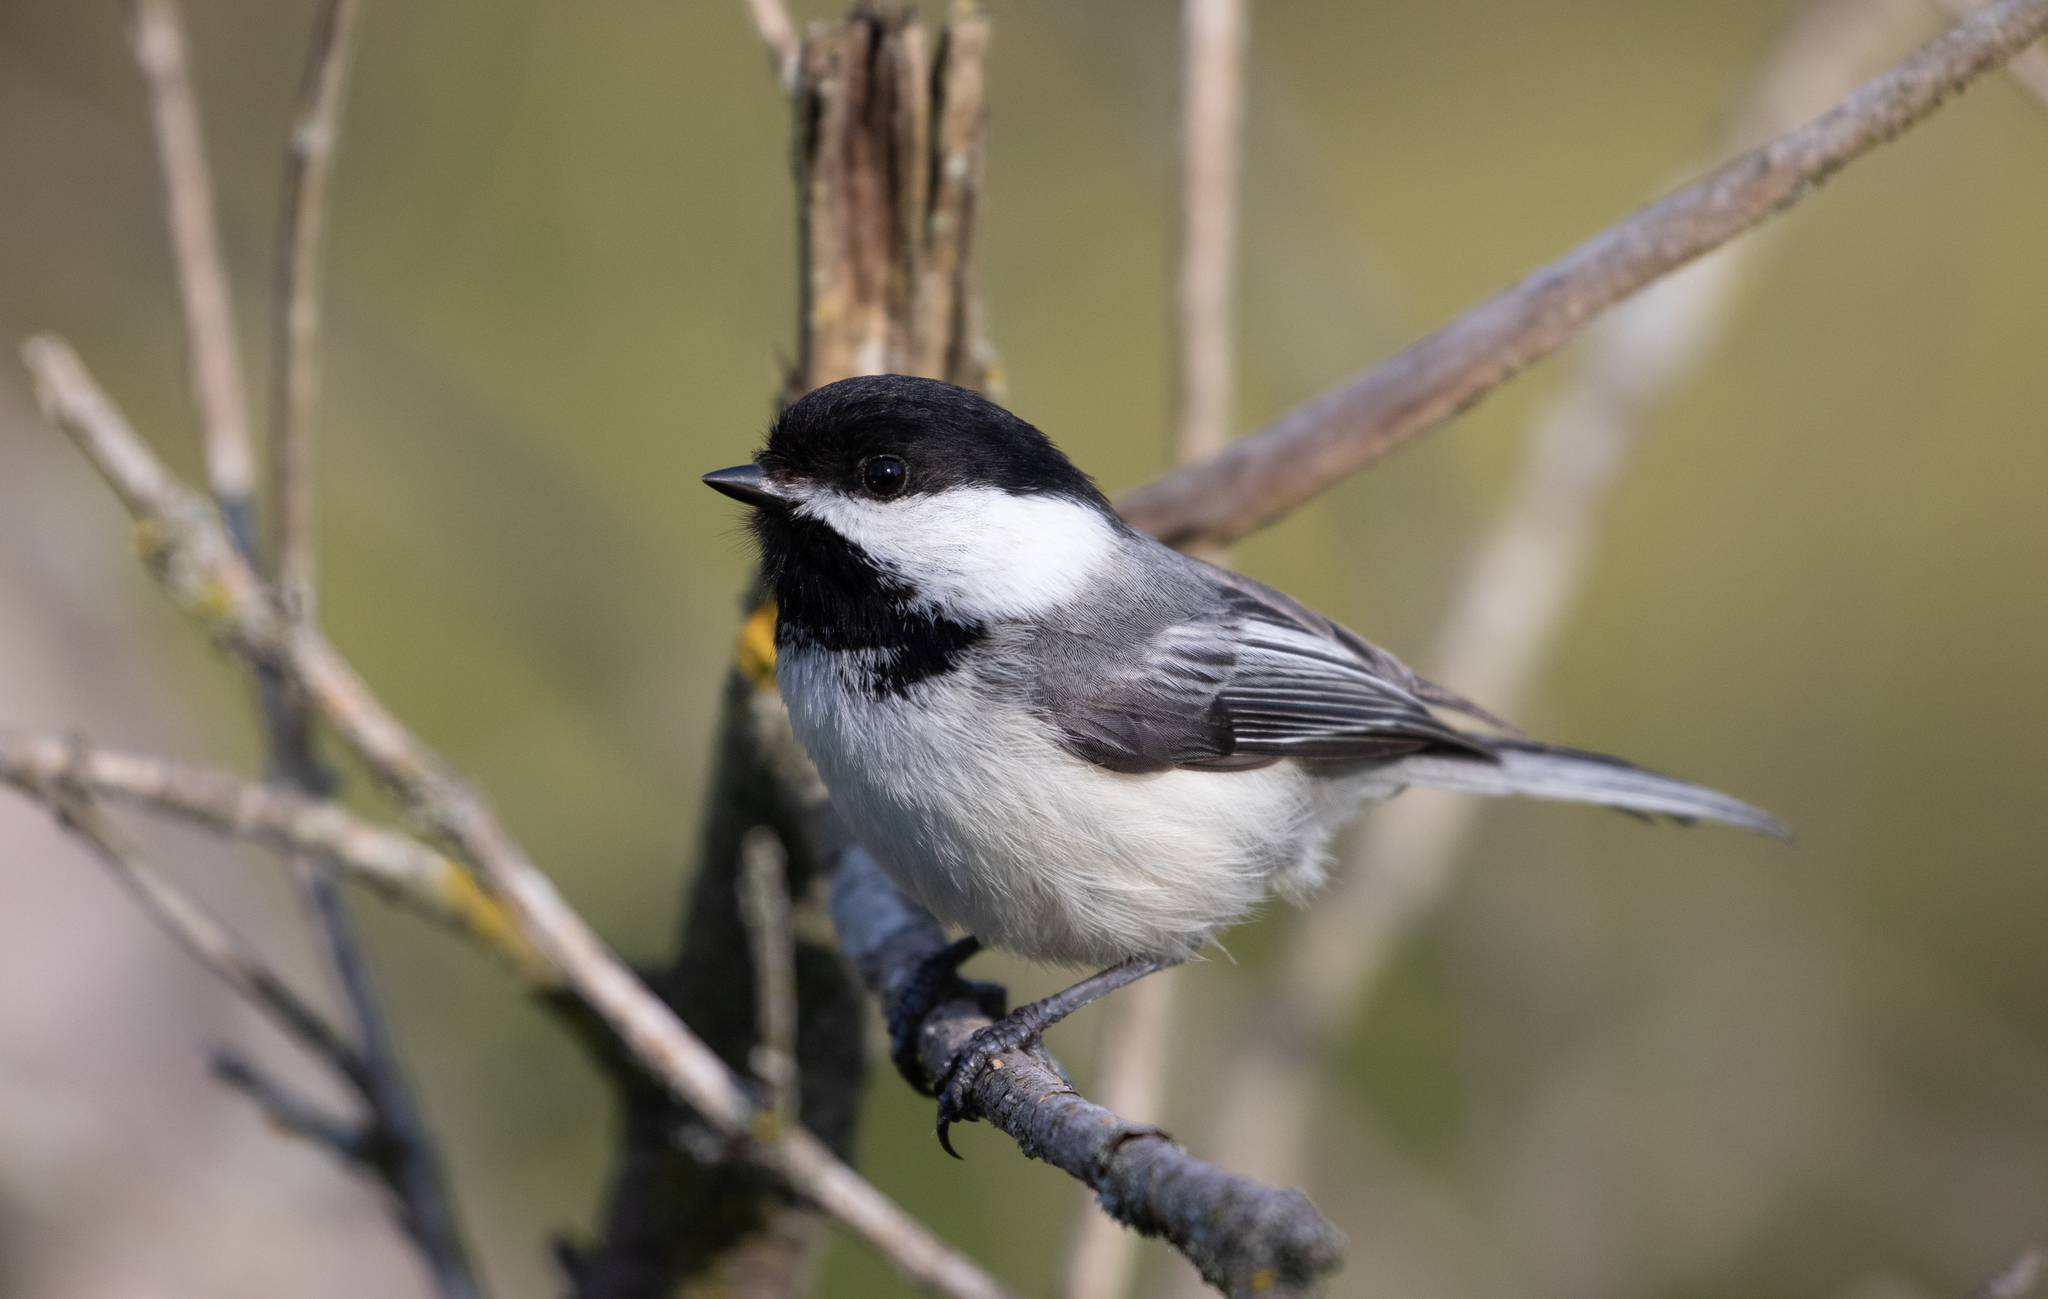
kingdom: Animalia
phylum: Chordata
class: Aves
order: Passeriformes
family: Paridae
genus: Poecile
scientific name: Poecile atricapillus
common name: Black-capped chickadee
